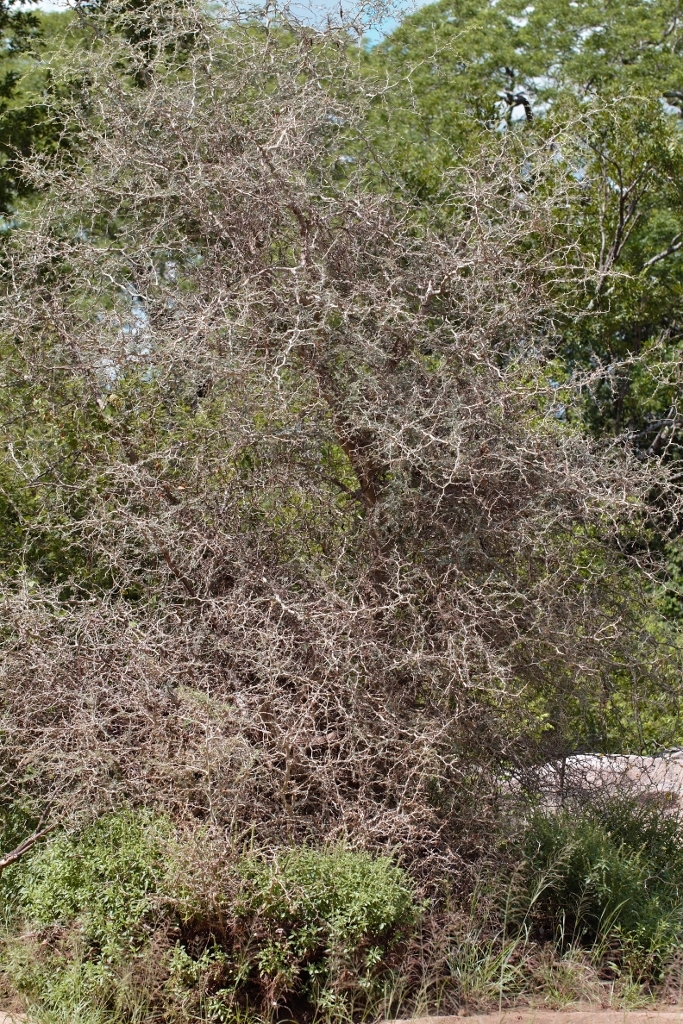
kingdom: Plantae
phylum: Tracheophyta
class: Magnoliopsida
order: Fabales
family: Fabaceae
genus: Faidherbia
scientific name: Faidherbia albida
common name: Anatree
